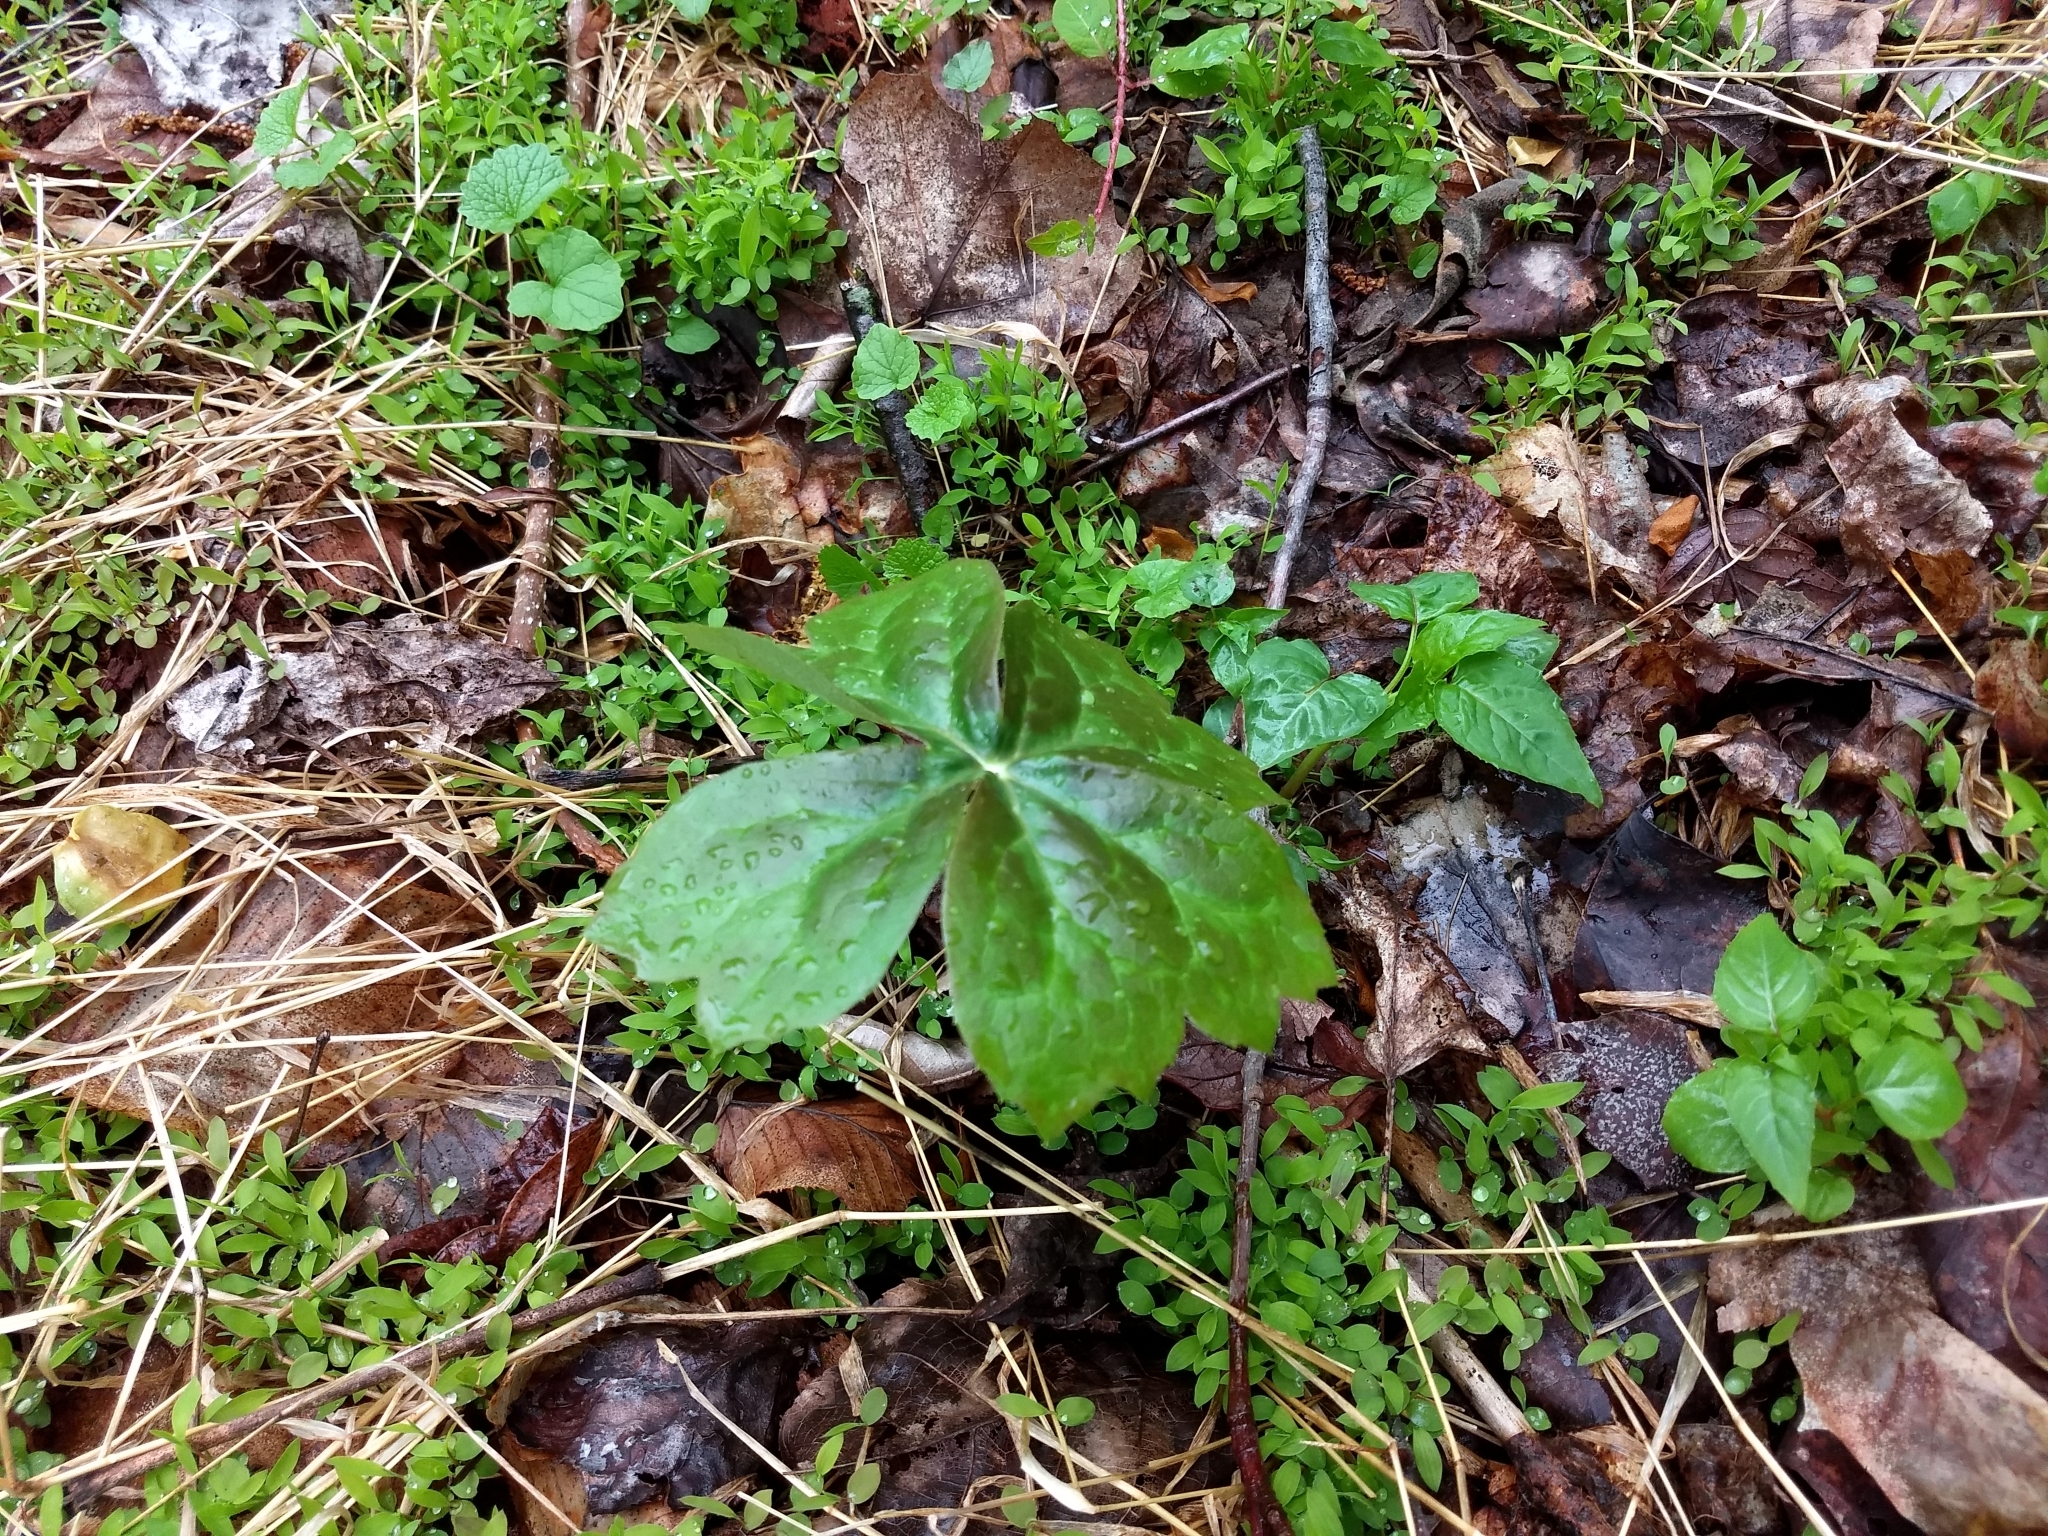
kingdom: Plantae
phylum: Tracheophyta
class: Magnoliopsida
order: Ranunculales
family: Berberidaceae
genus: Podophyllum
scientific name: Podophyllum peltatum
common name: Wild mandrake
